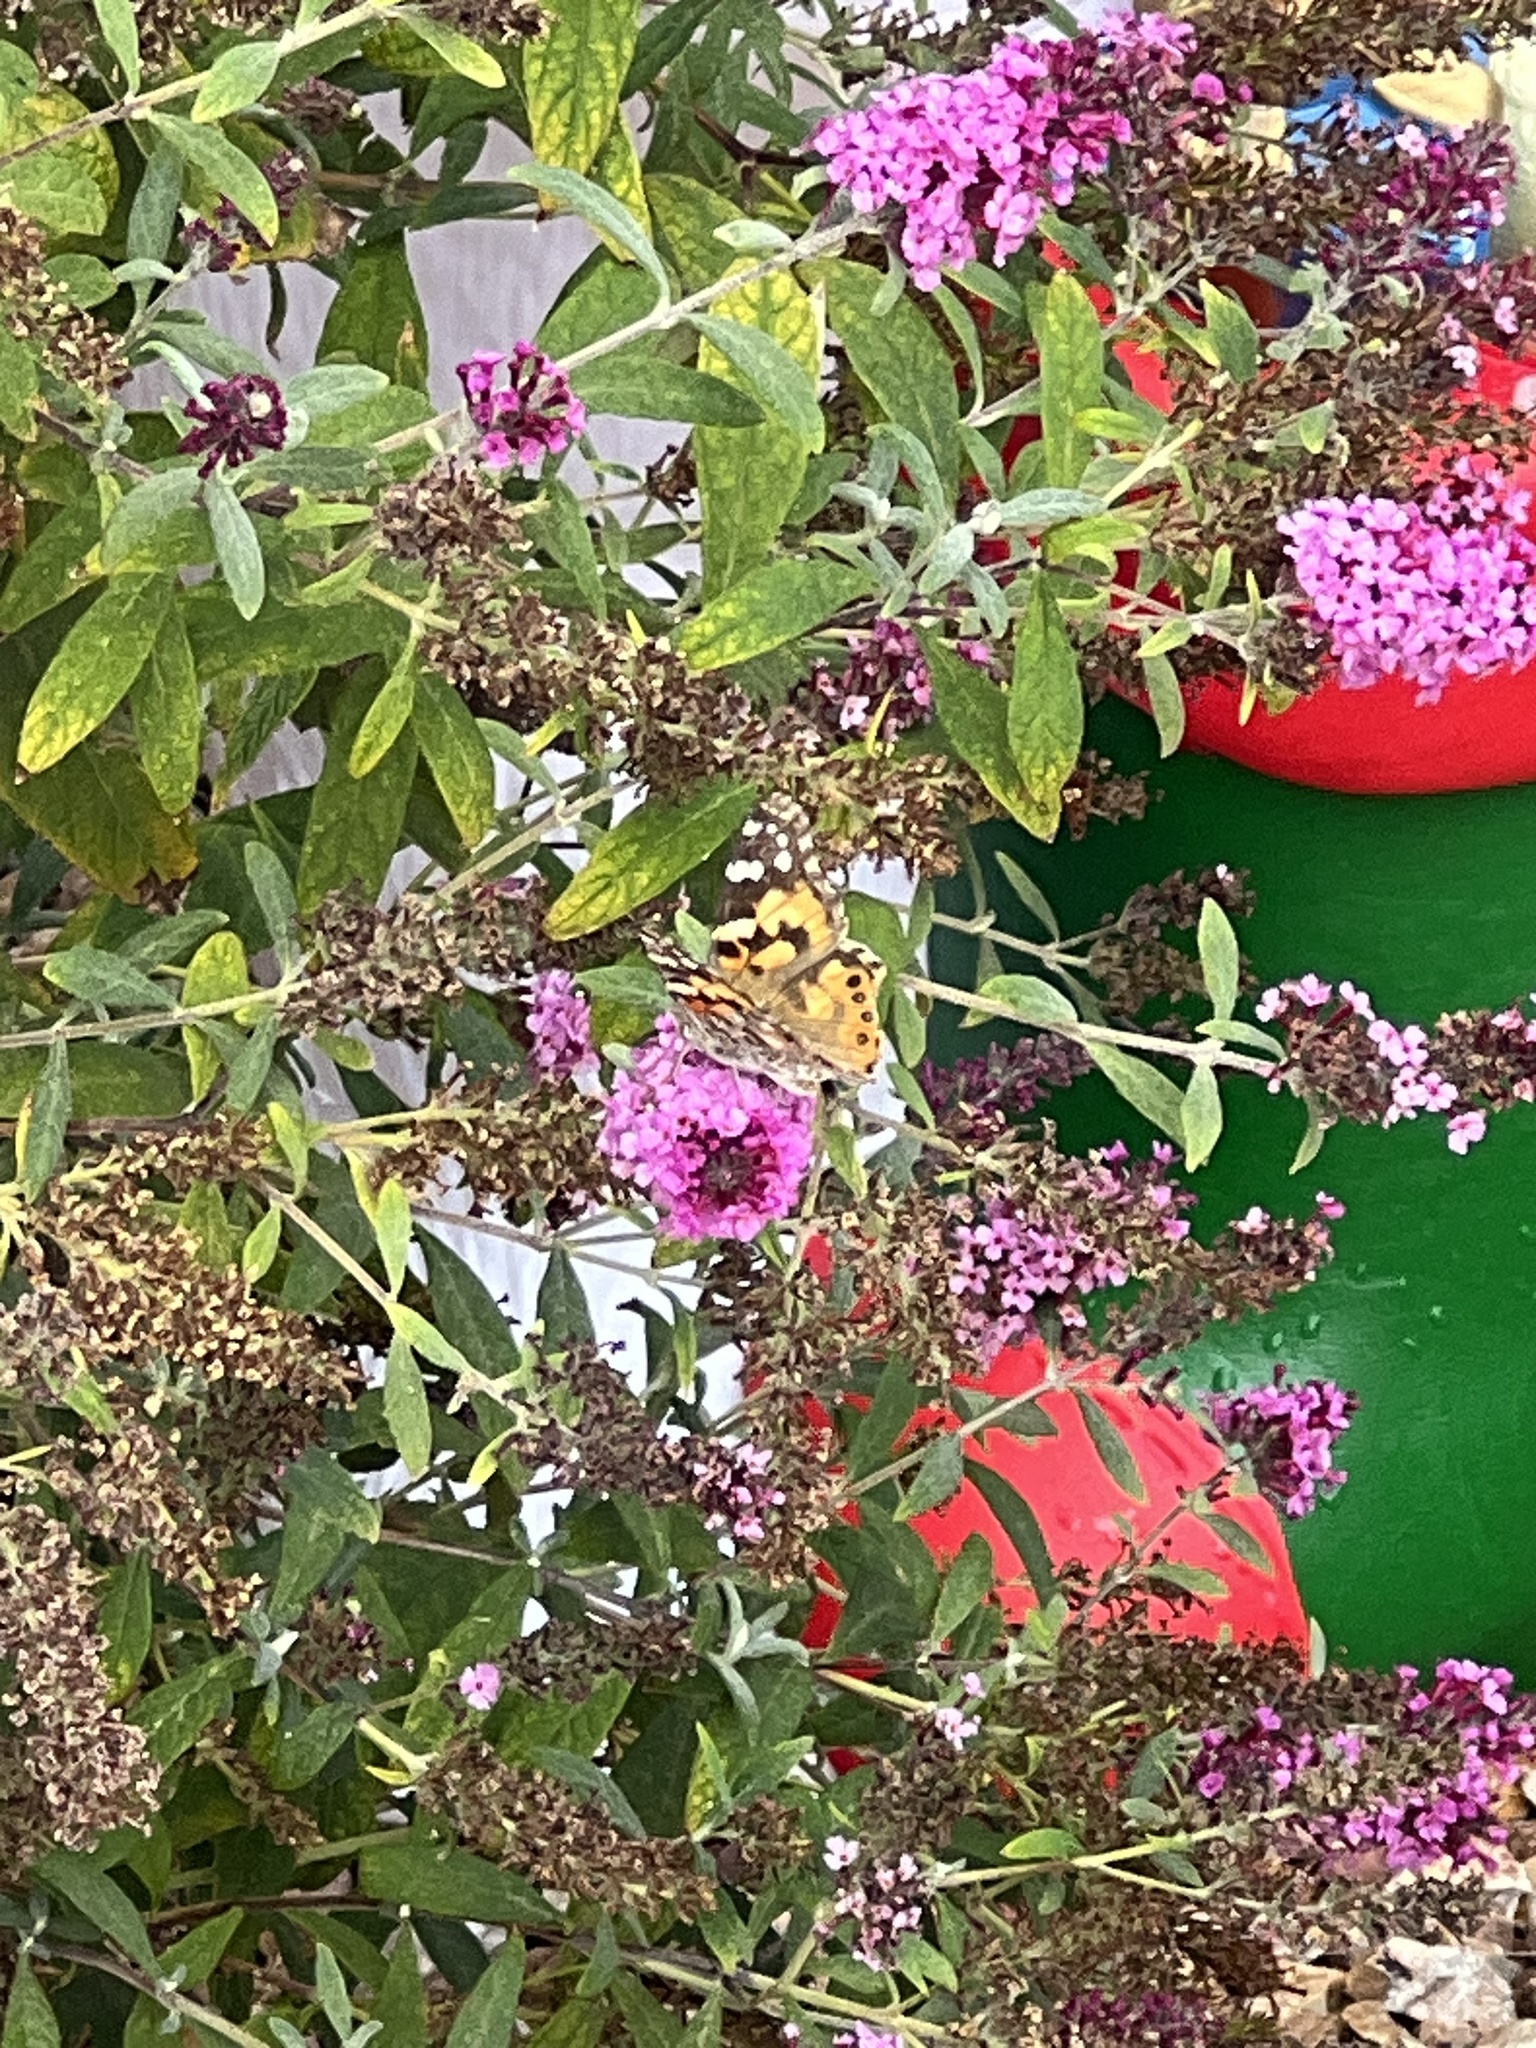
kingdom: Animalia
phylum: Arthropoda
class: Insecta
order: Lepidoptera
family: Nymphalidae
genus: Vanessa
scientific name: Vanessa cardui
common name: Painted lady
